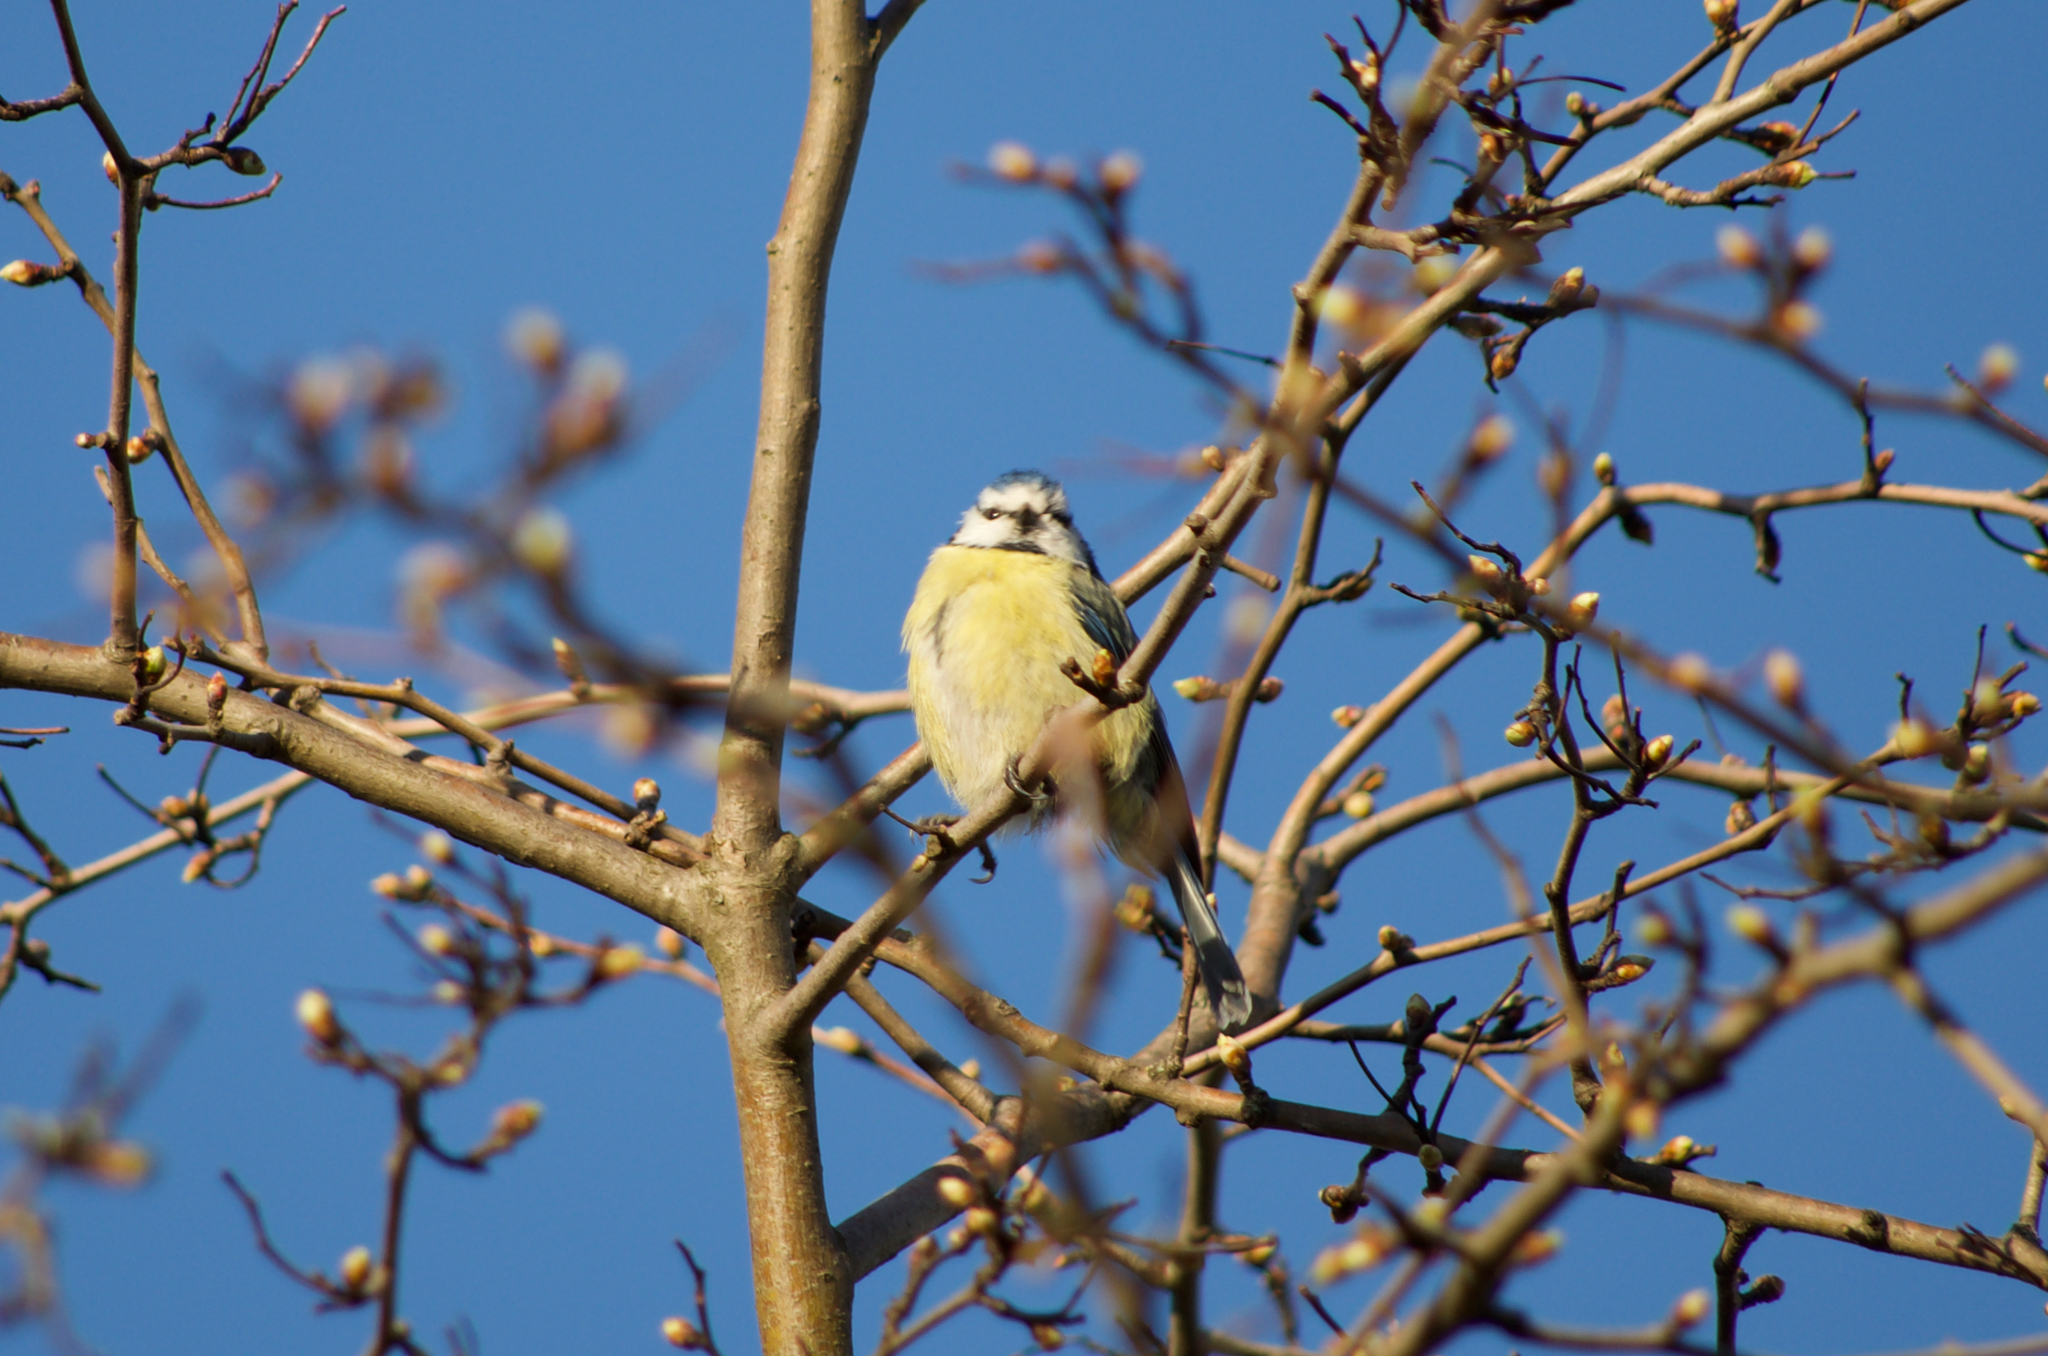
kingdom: Animalia
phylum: Chordata
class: Aves
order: Passeriformes
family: Paridae
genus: Cyanistes
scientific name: Cyanistes caeruleus
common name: Eurasian blue tit
